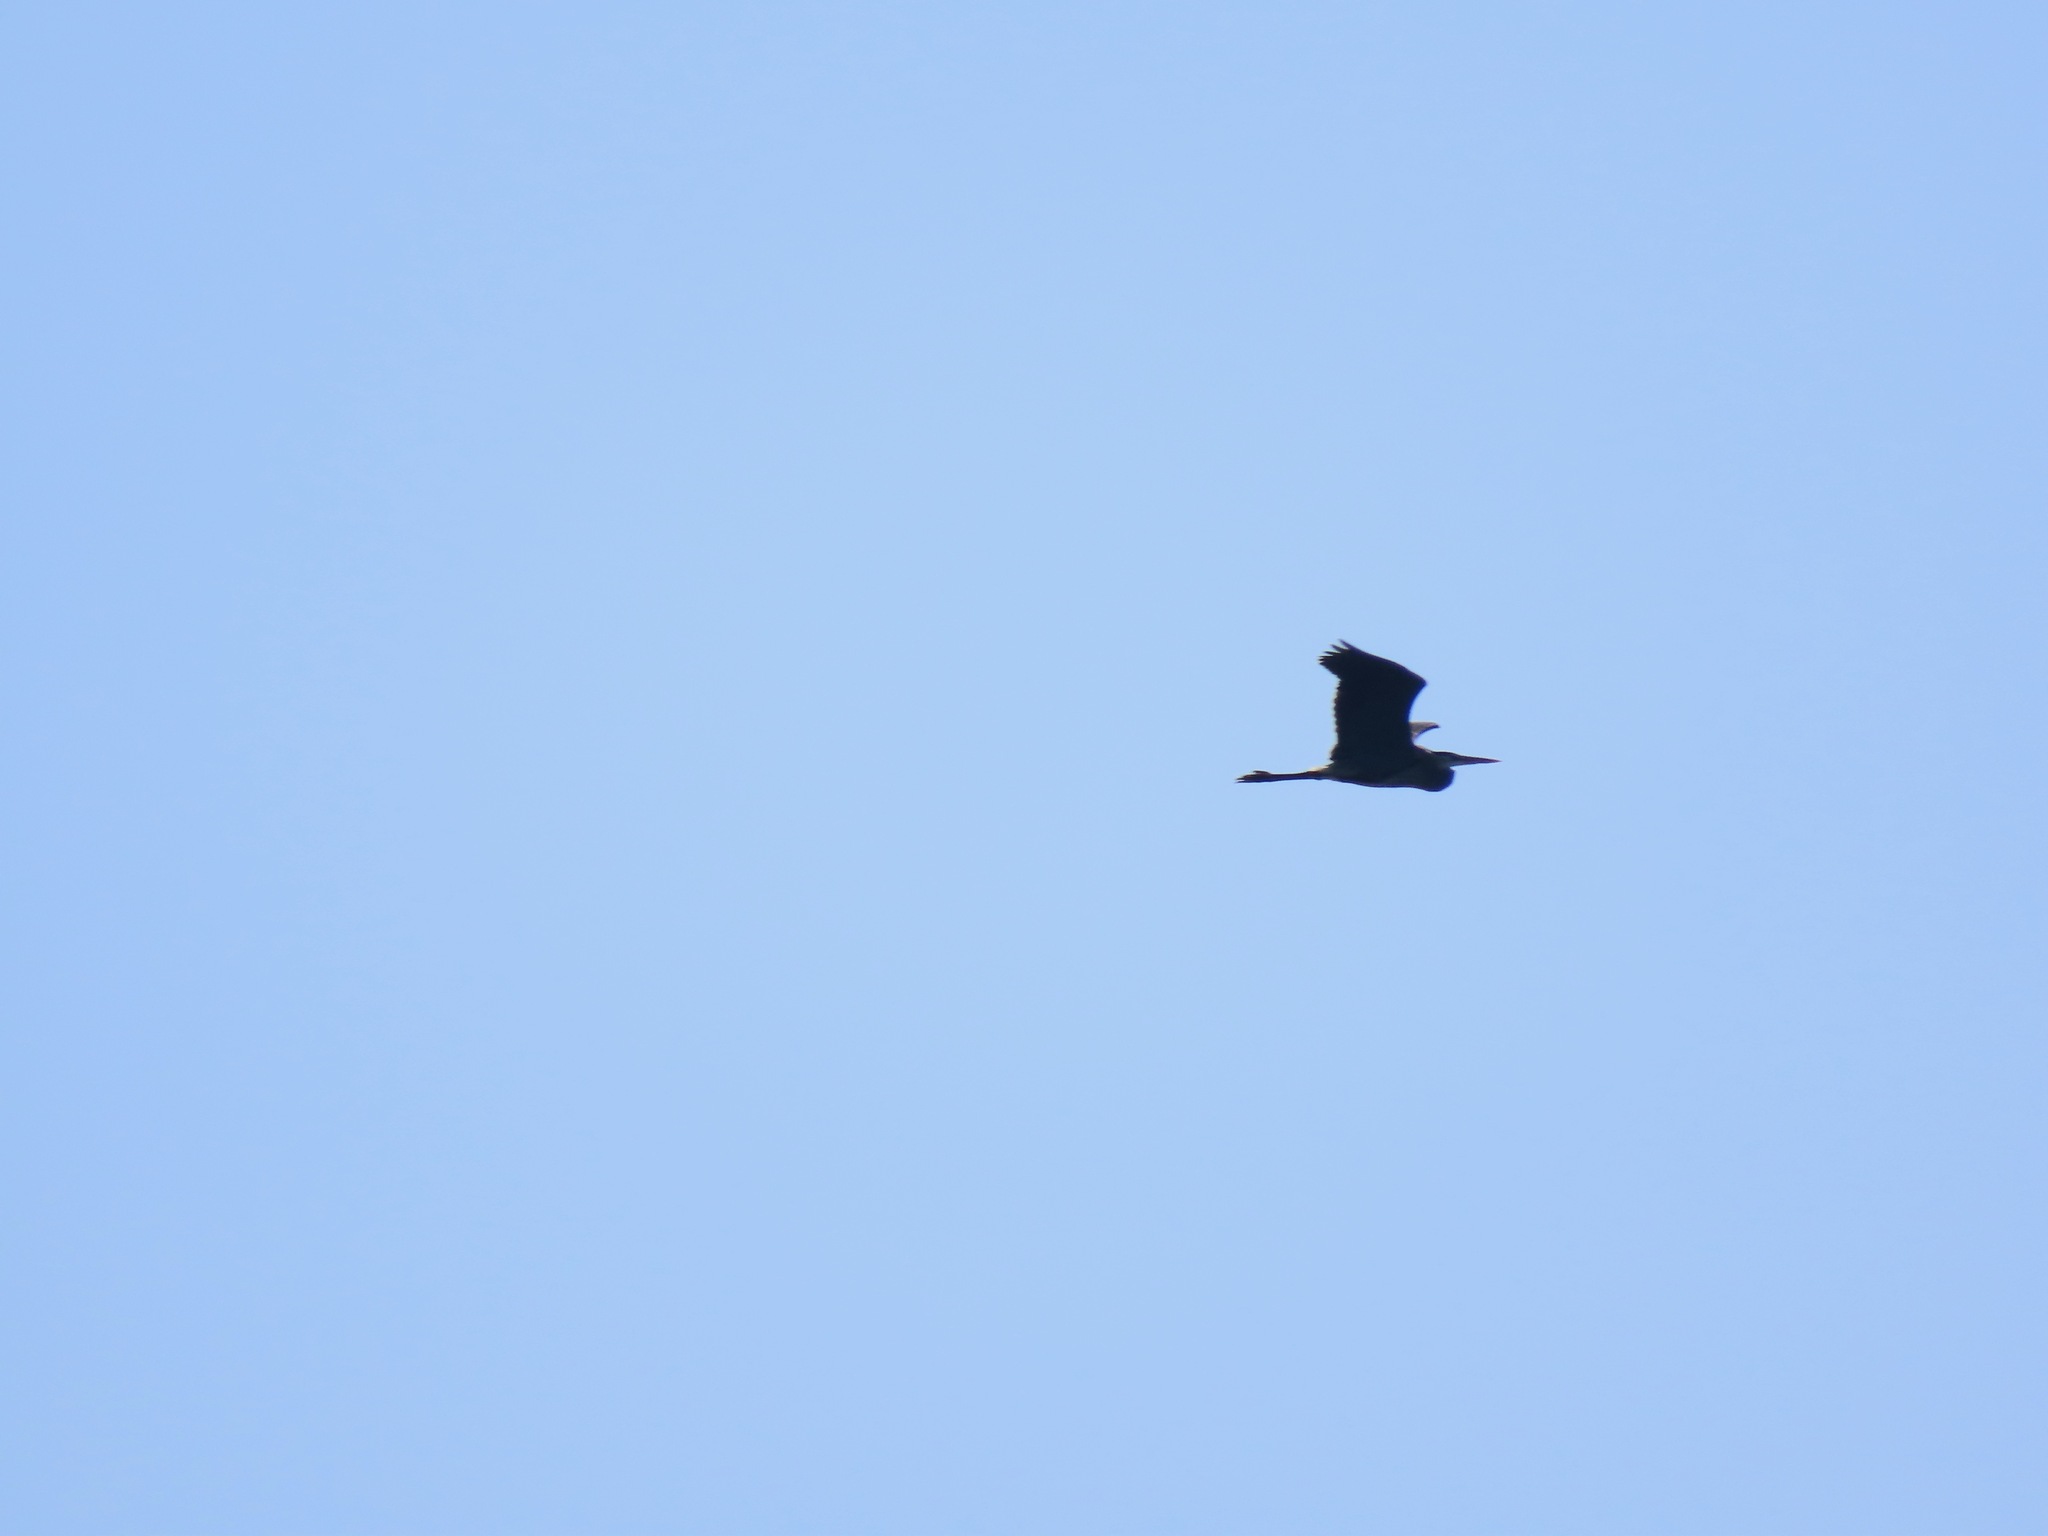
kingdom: Animalia
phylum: Chordata
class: Aves
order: Pelecaniformes
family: Ardeidae
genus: Ardea
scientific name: Ardea herodias
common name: Great blue heron
